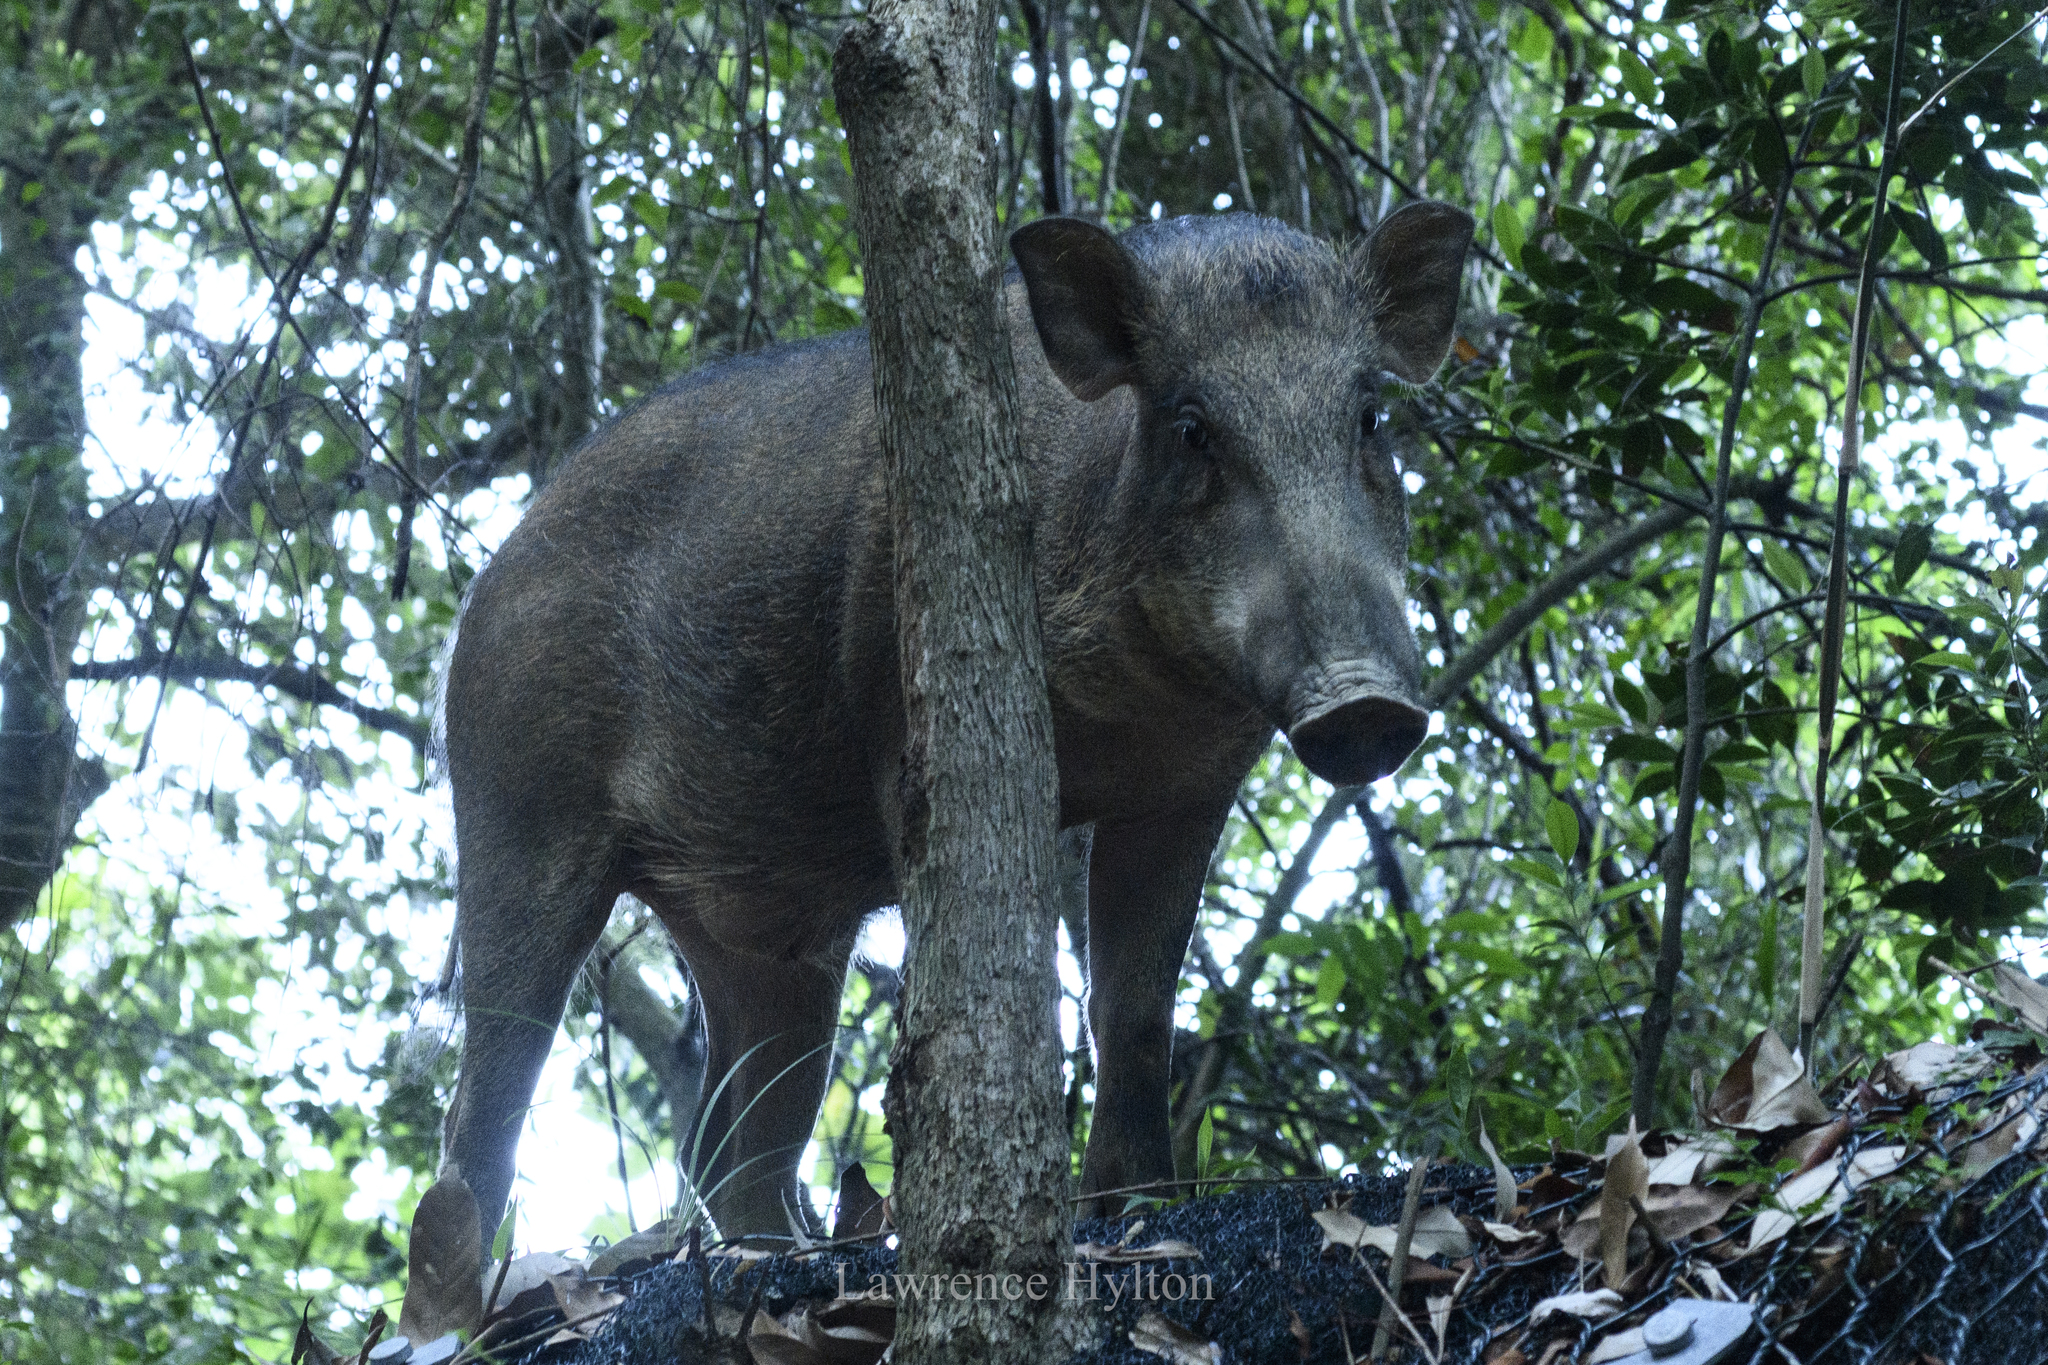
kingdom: Animalia
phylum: Chordata
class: Mammalia
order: Artiodactyla
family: Suidae
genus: Sus
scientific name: Sus scrofa
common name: Wild boar
